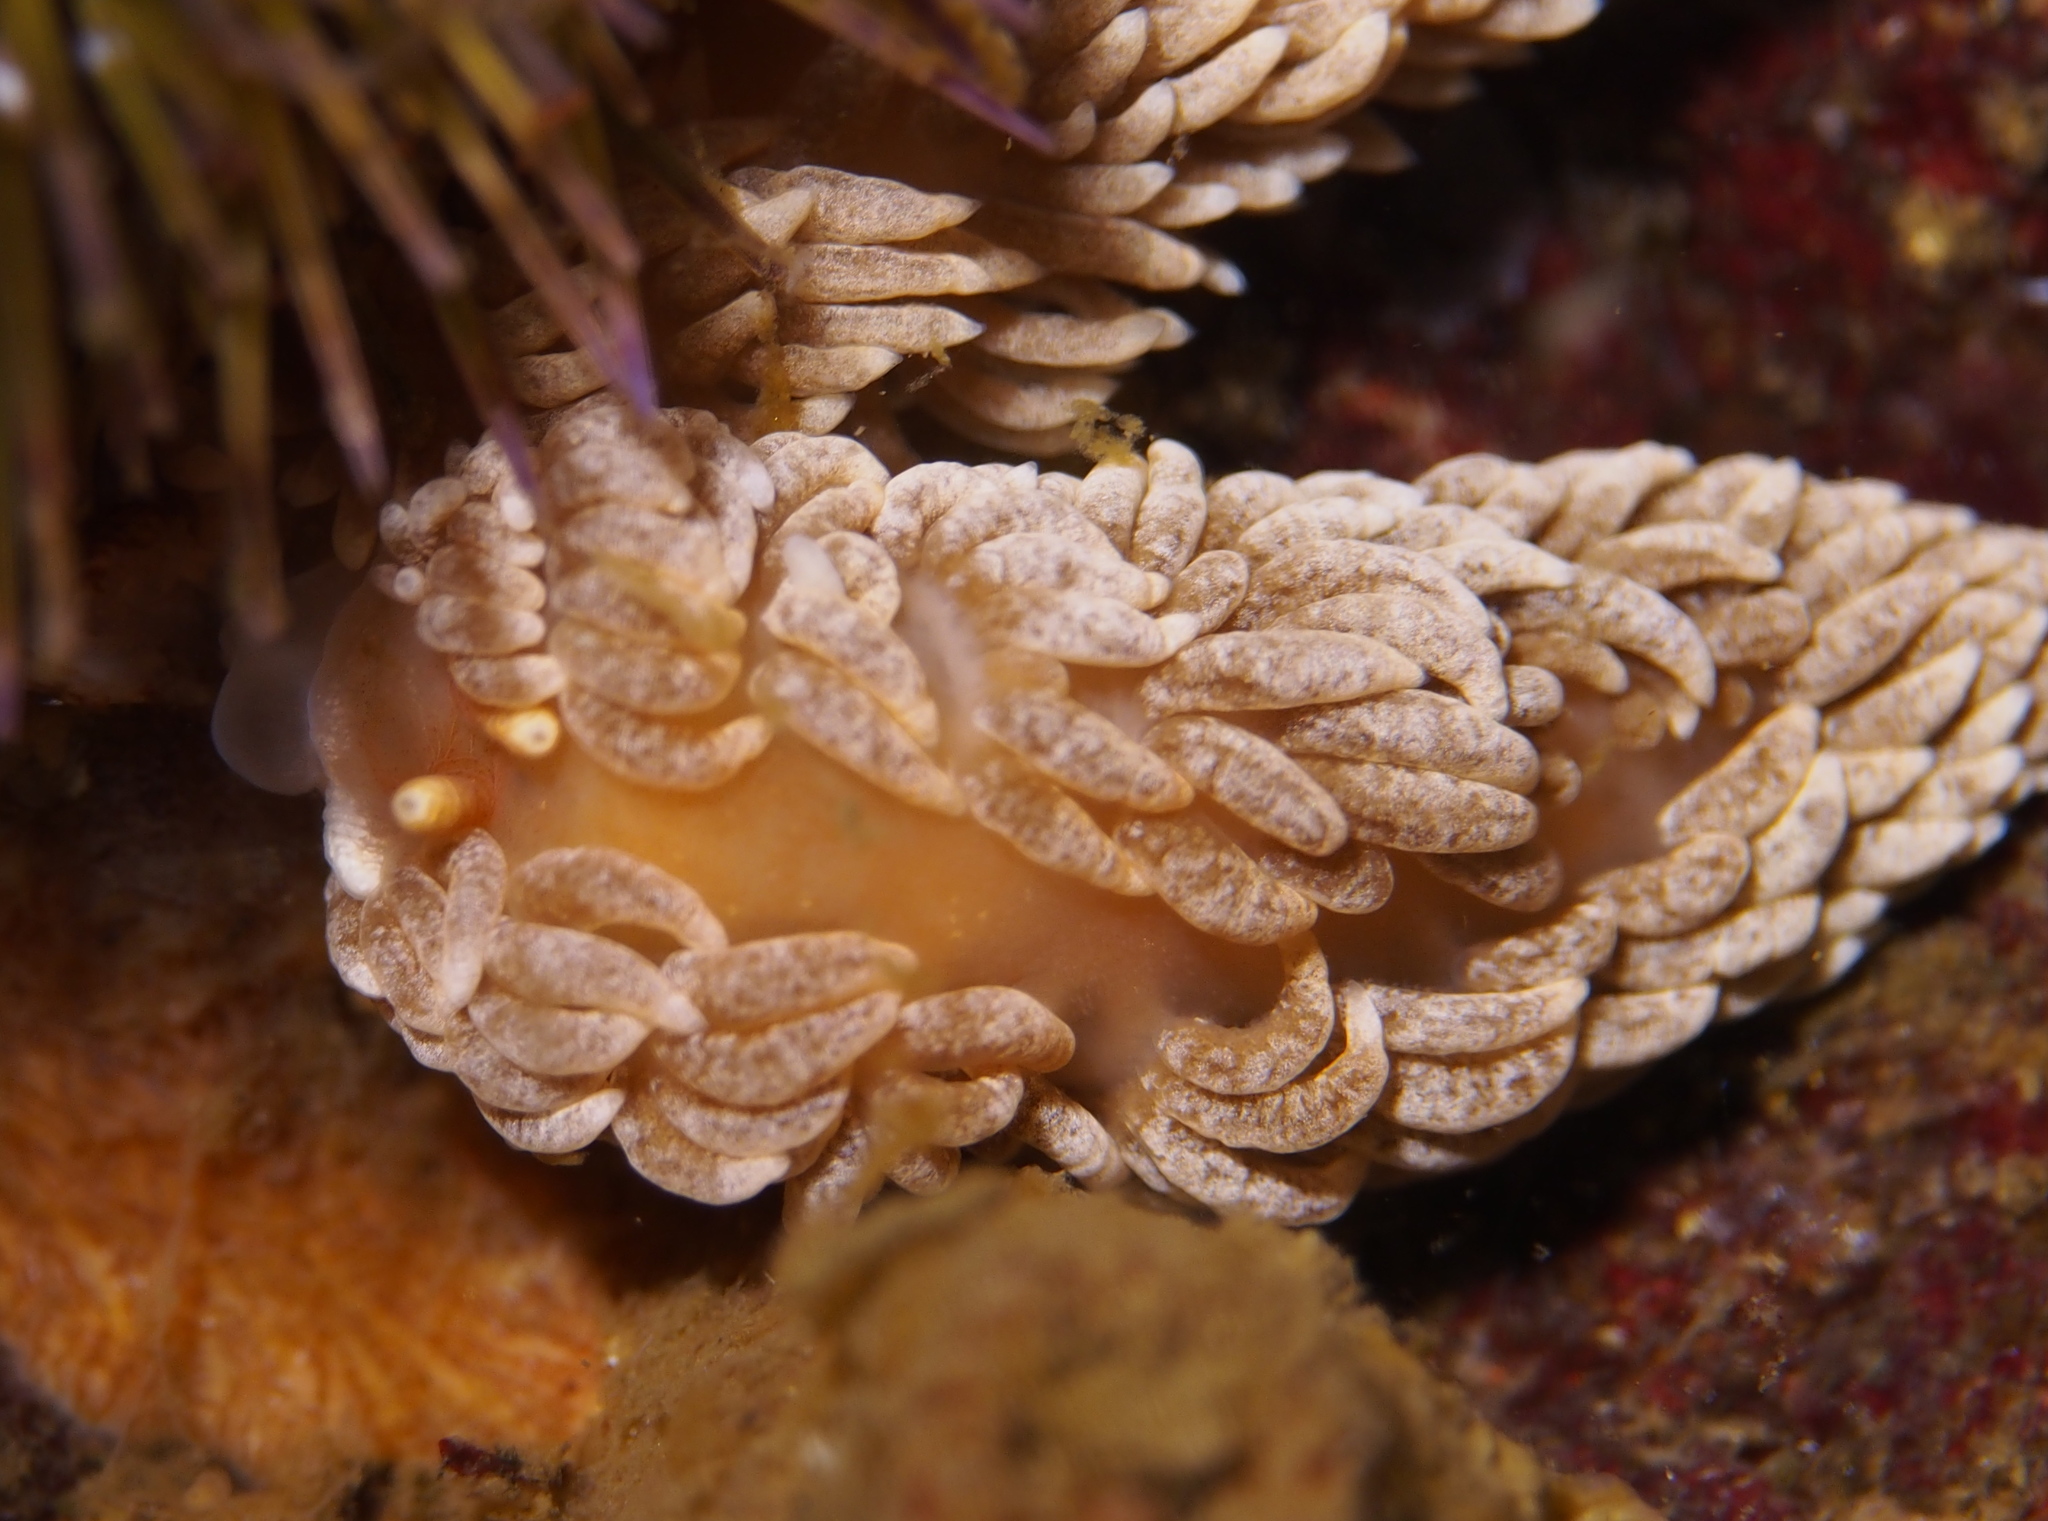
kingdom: Animalia
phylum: Mollusca
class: Gastropoda
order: Nudibranchia
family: Aeolidiidae
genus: Aeolidiella
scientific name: Aeolidiella glauca
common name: Orange-brown aeolid
